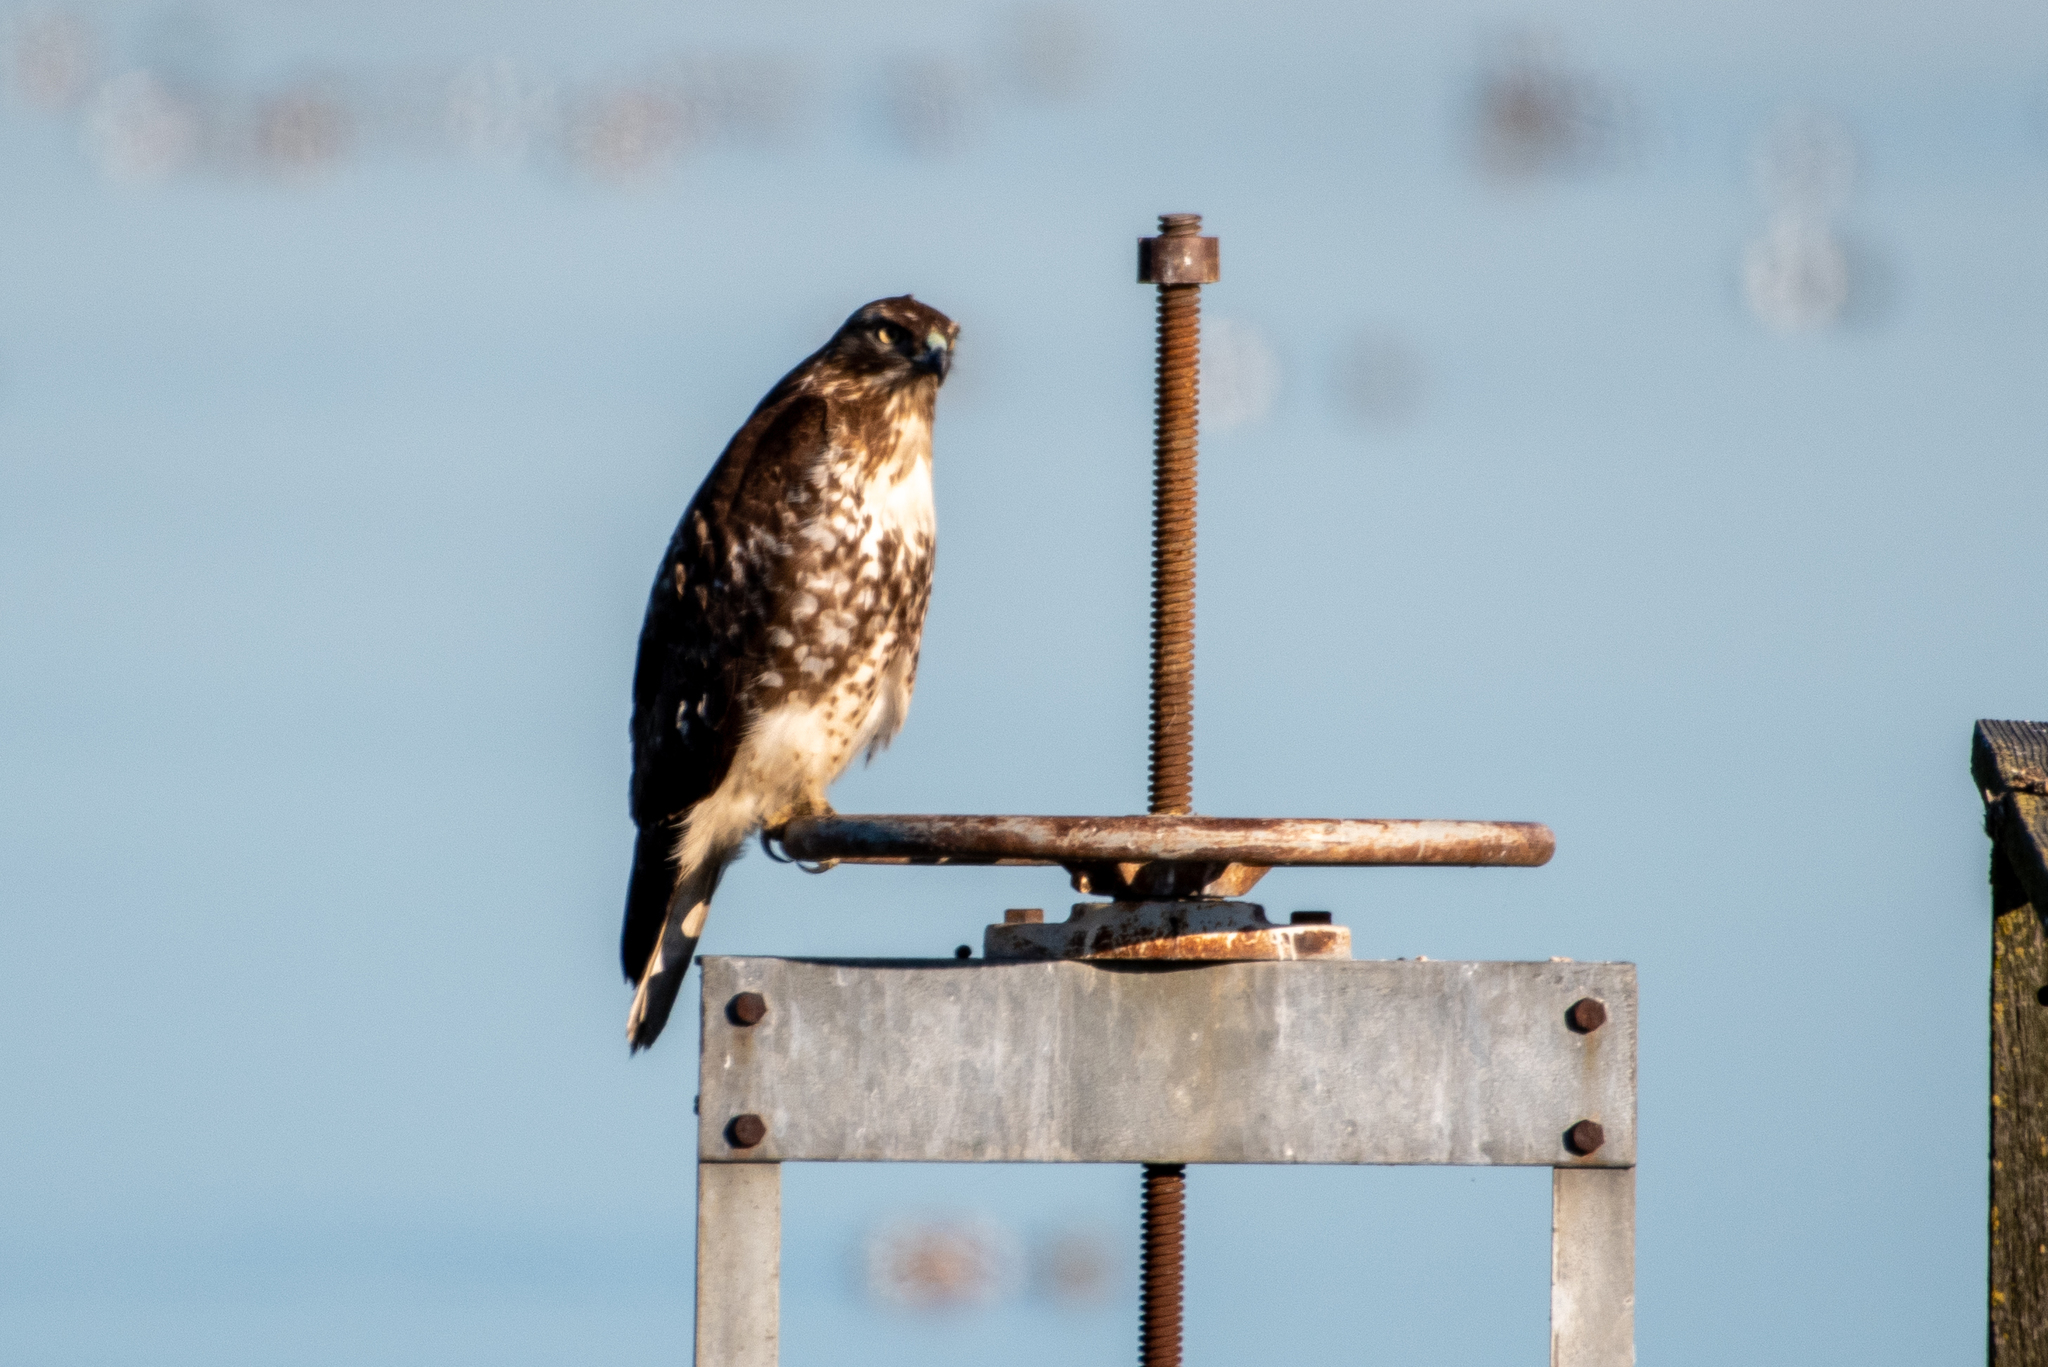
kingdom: Animalia
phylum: Chordata
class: Aves
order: Accipitriformes
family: Accipitridae
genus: Buteo
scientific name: Buteo jamaicensis
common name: Red-tailed hawk
